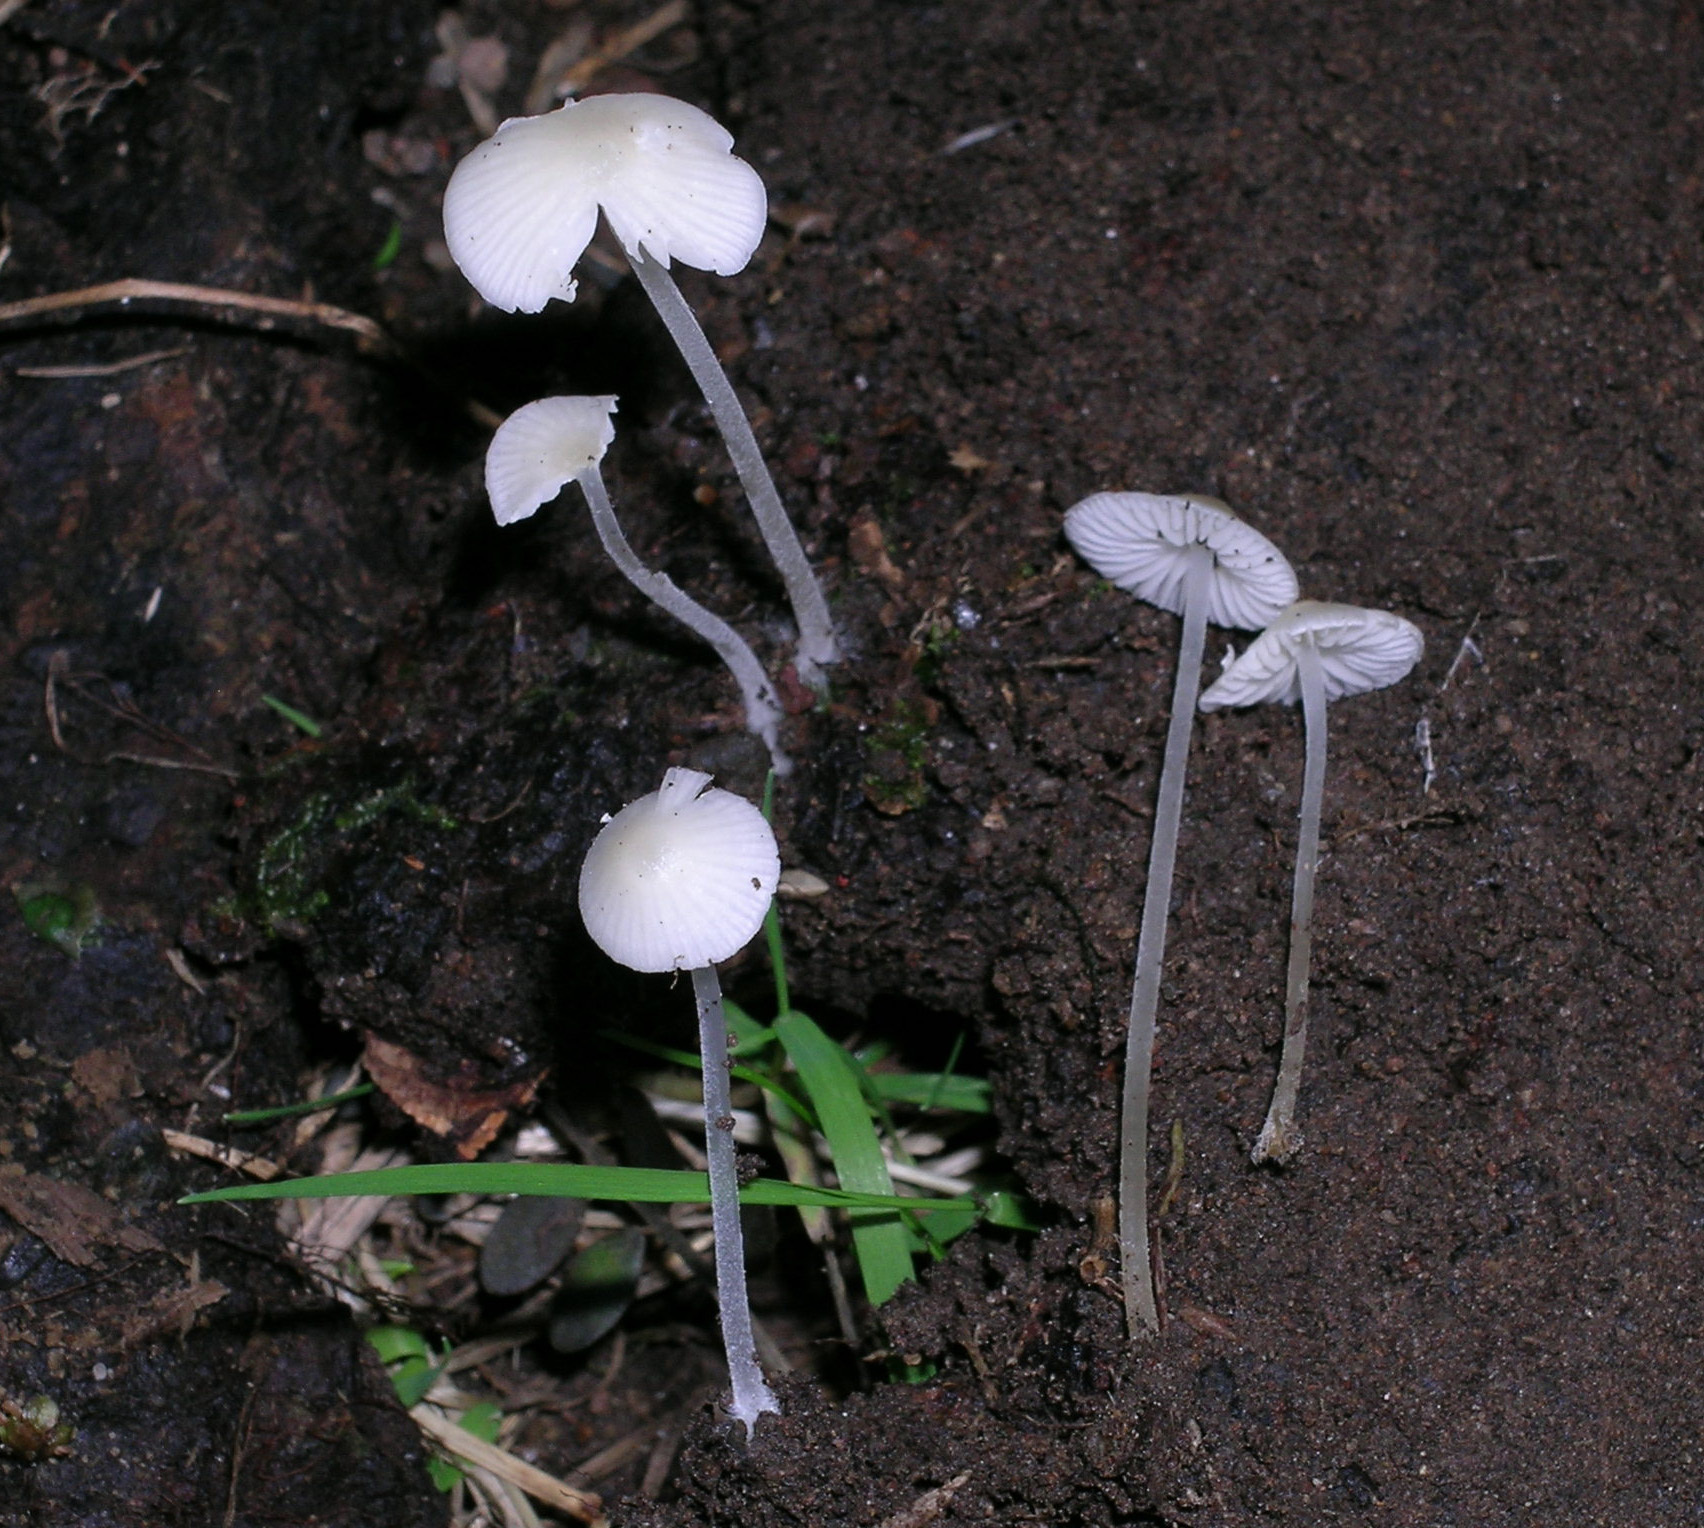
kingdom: Fungi
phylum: Basidiomycota
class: Agaricomycetes
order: Agaricales
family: Porotheleaceae
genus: Phloeomana
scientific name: Phloeomana minutula
